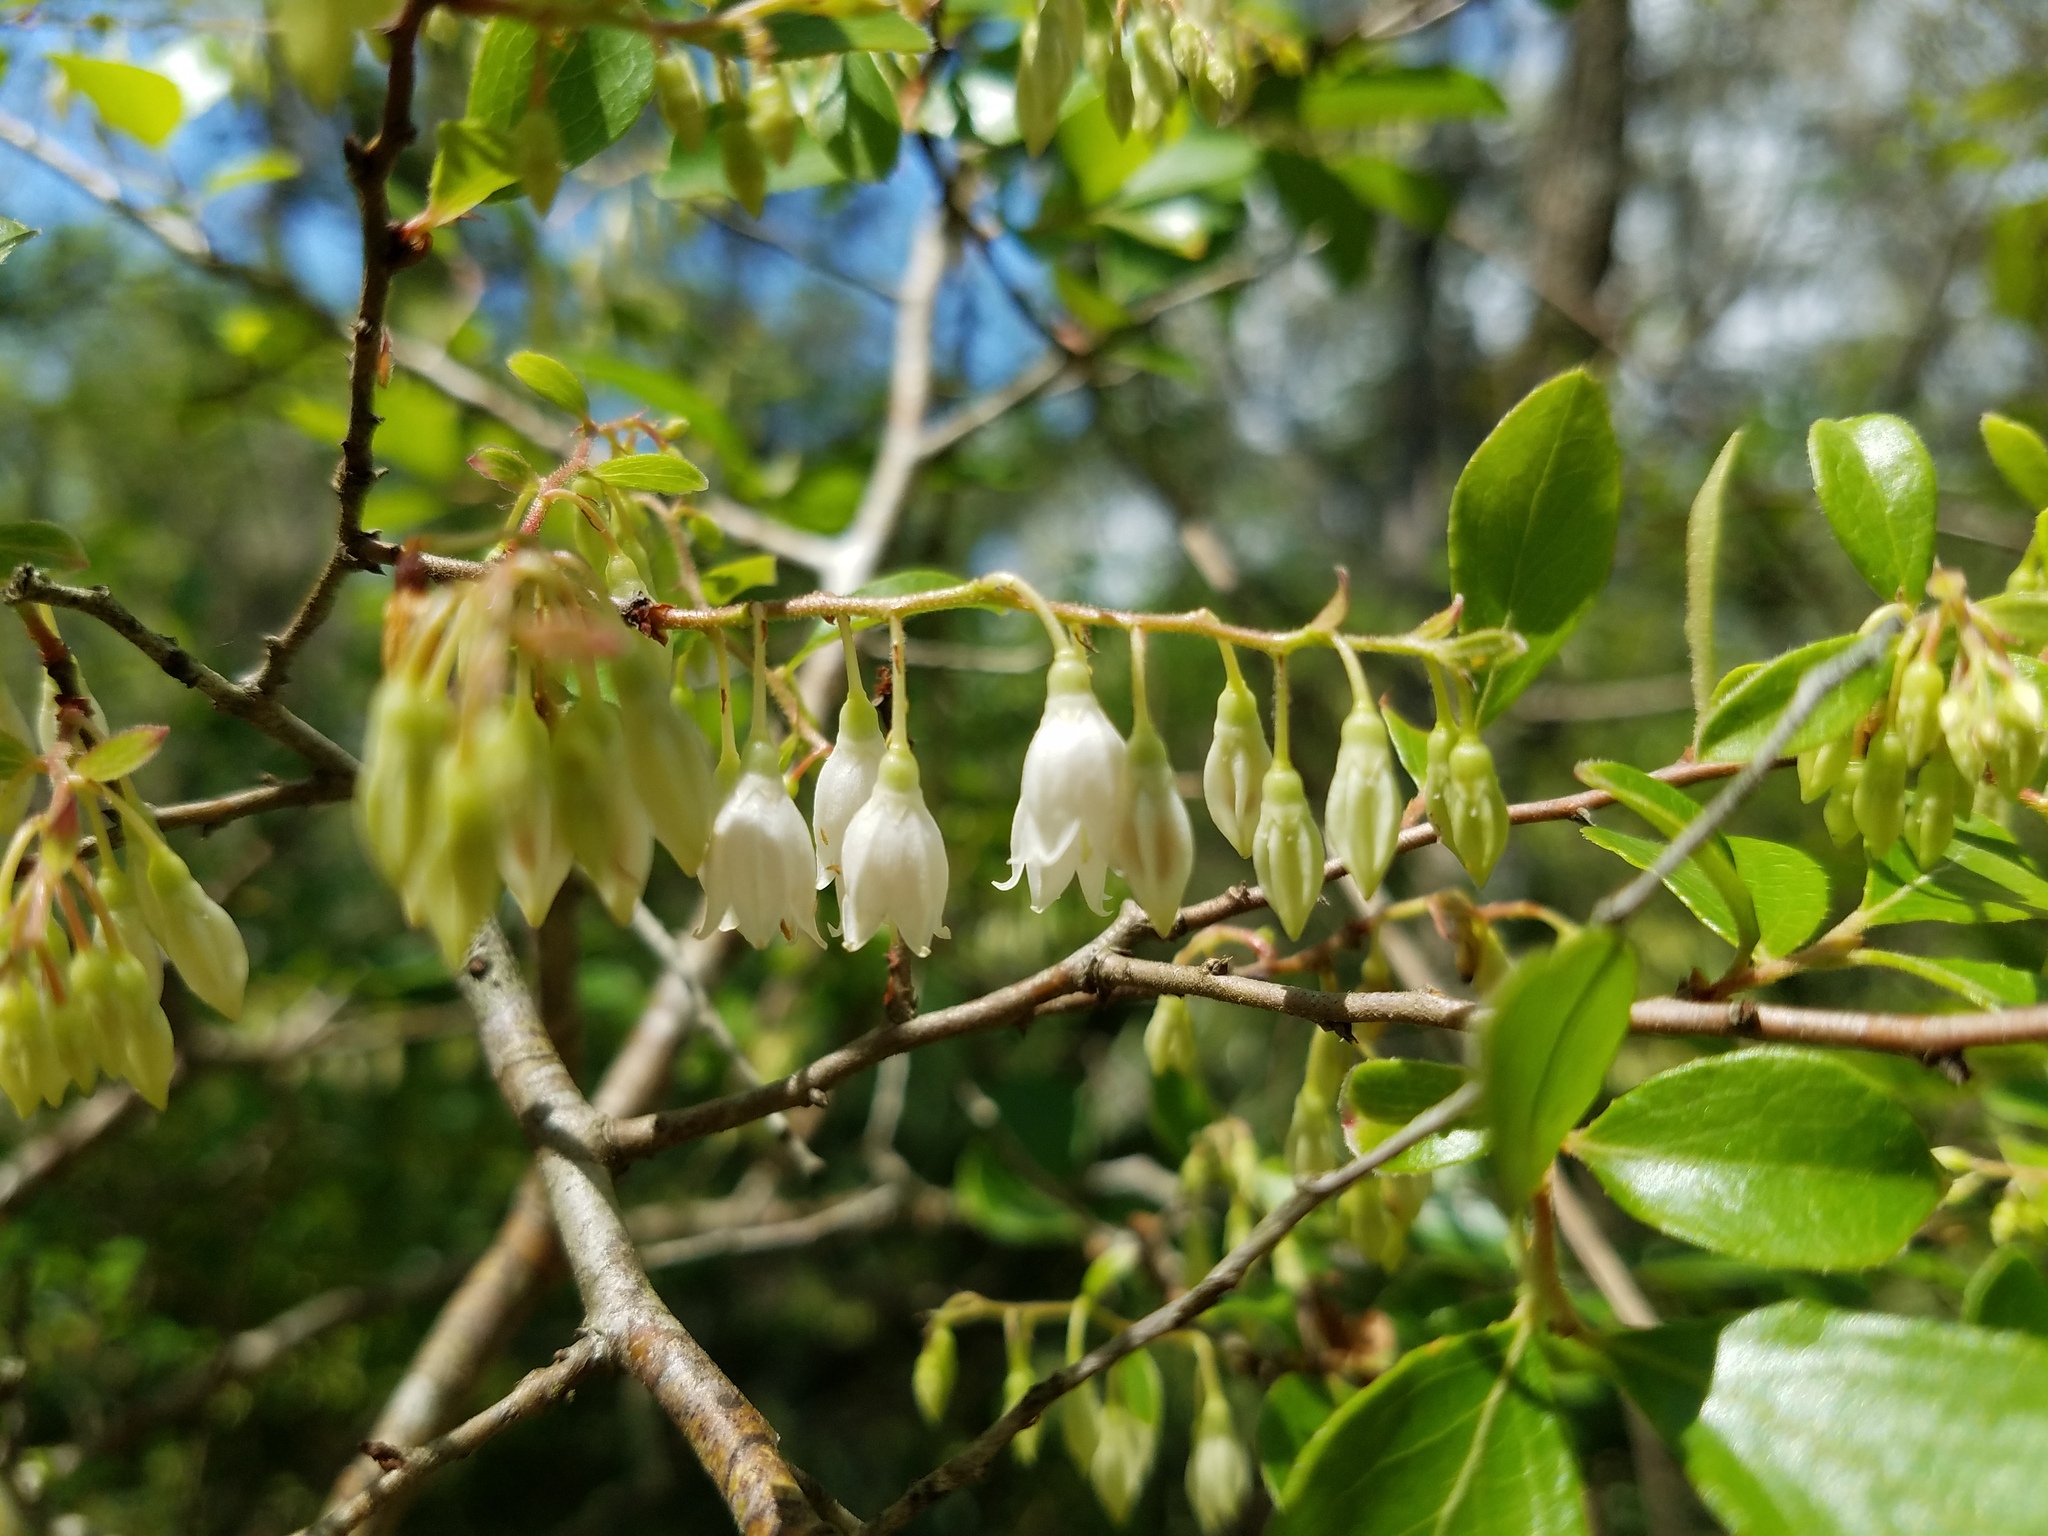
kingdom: Plantae
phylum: Tracheophyta
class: Magnoliopsida
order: Ericales
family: Ericaceae
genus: Vaccinium
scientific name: Vaccinium arboreum
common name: Farkleberry
